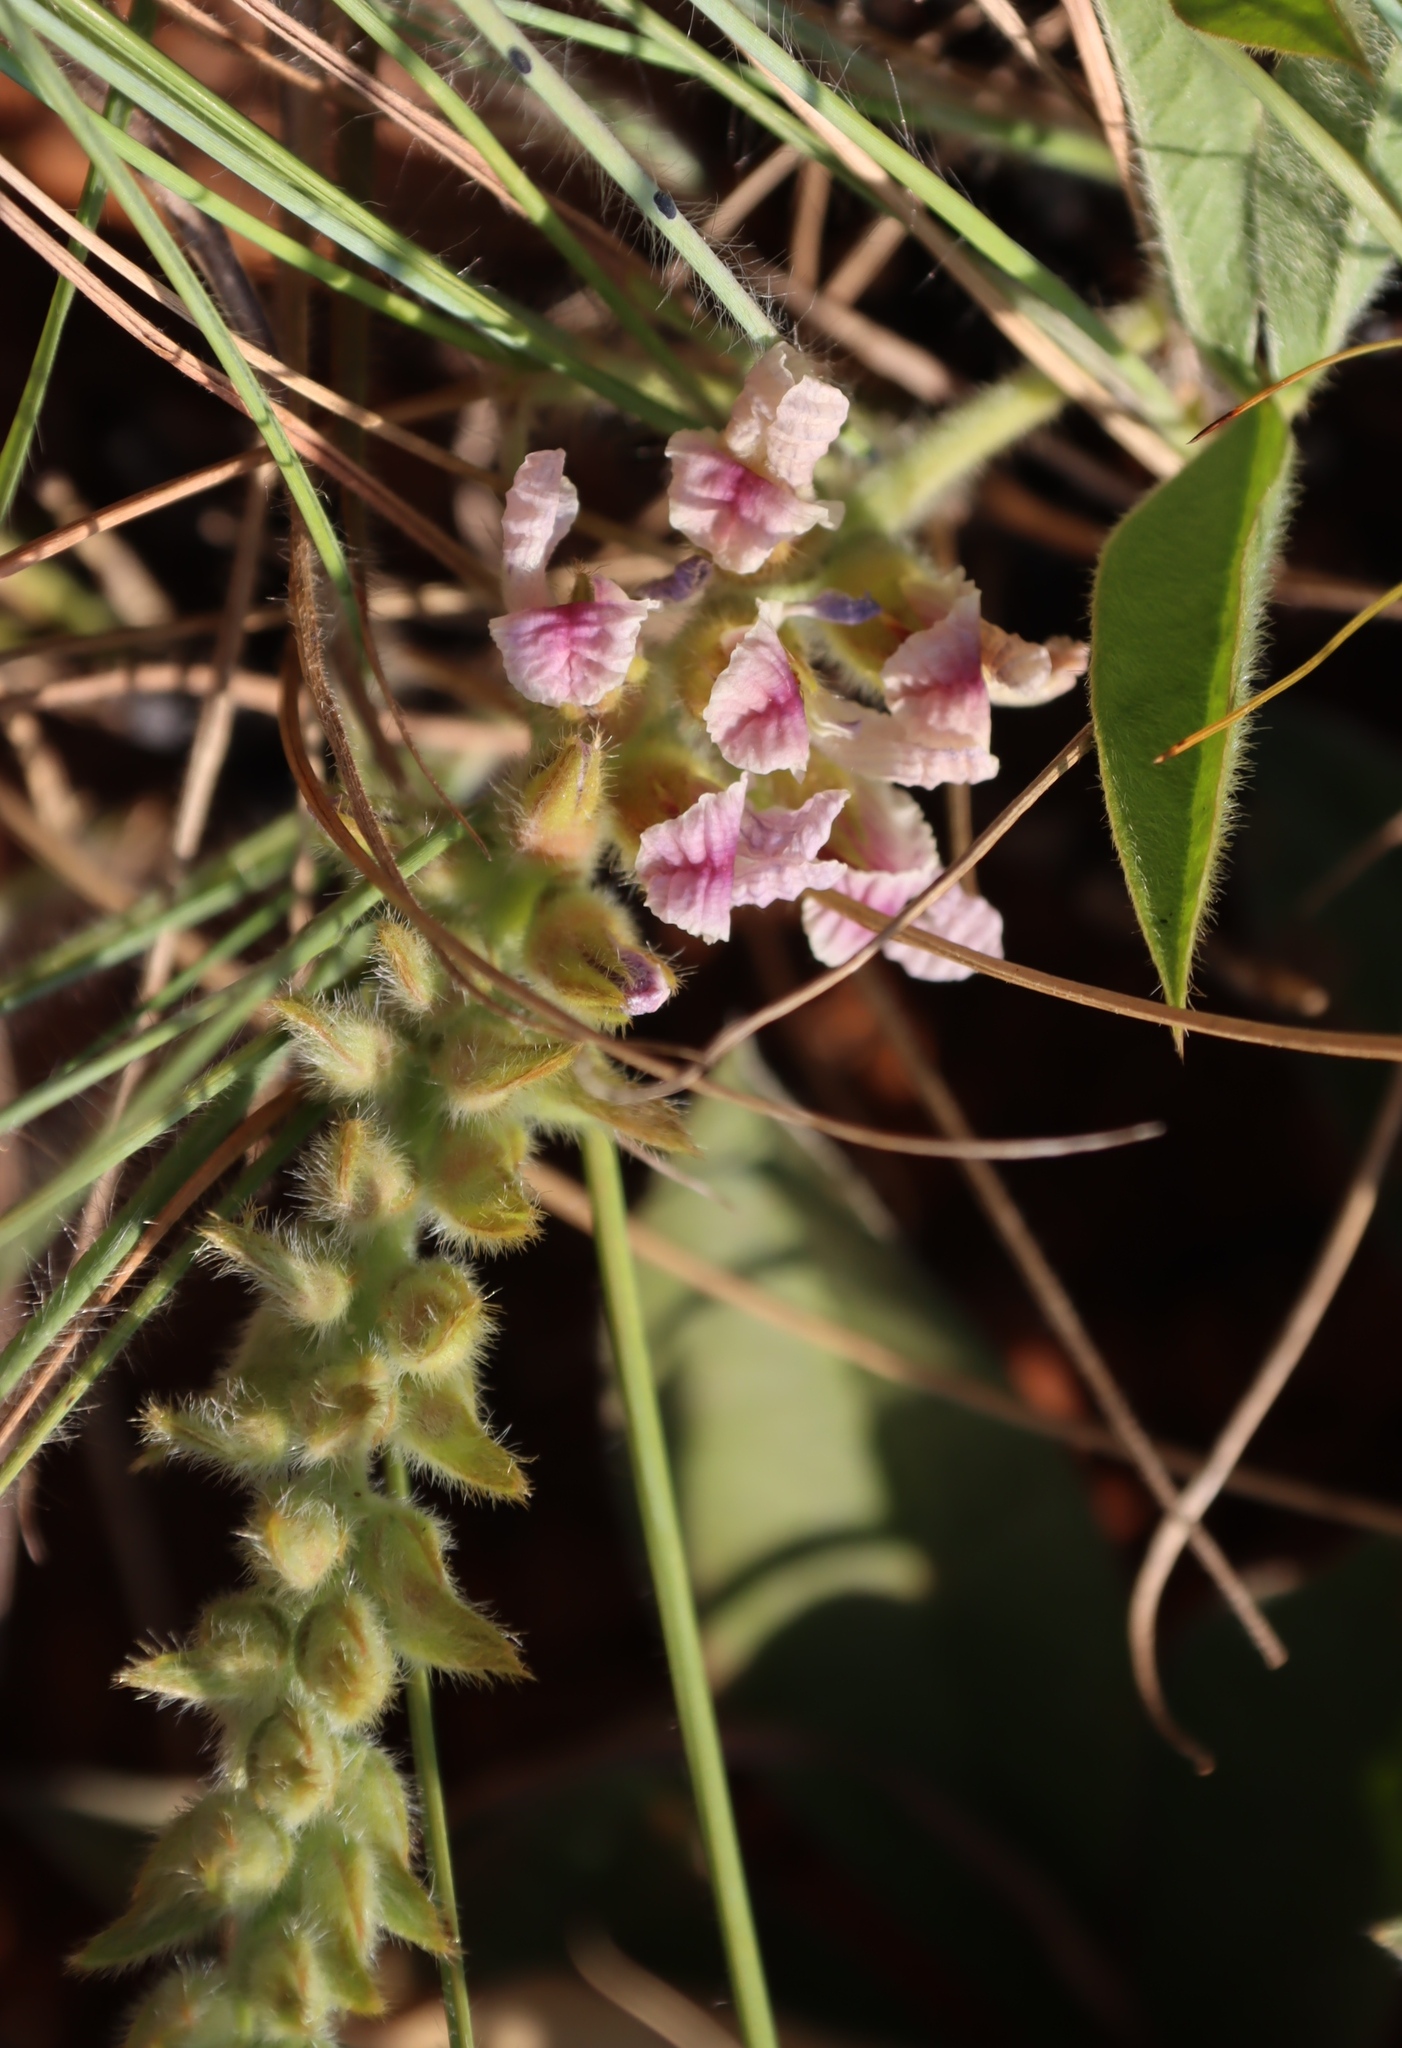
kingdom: Plantae
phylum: Tracheophyta
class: Magnoliopsida
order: Fabales
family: Fabaceae
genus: Pearsonia
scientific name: Pearsonia grandifolia
